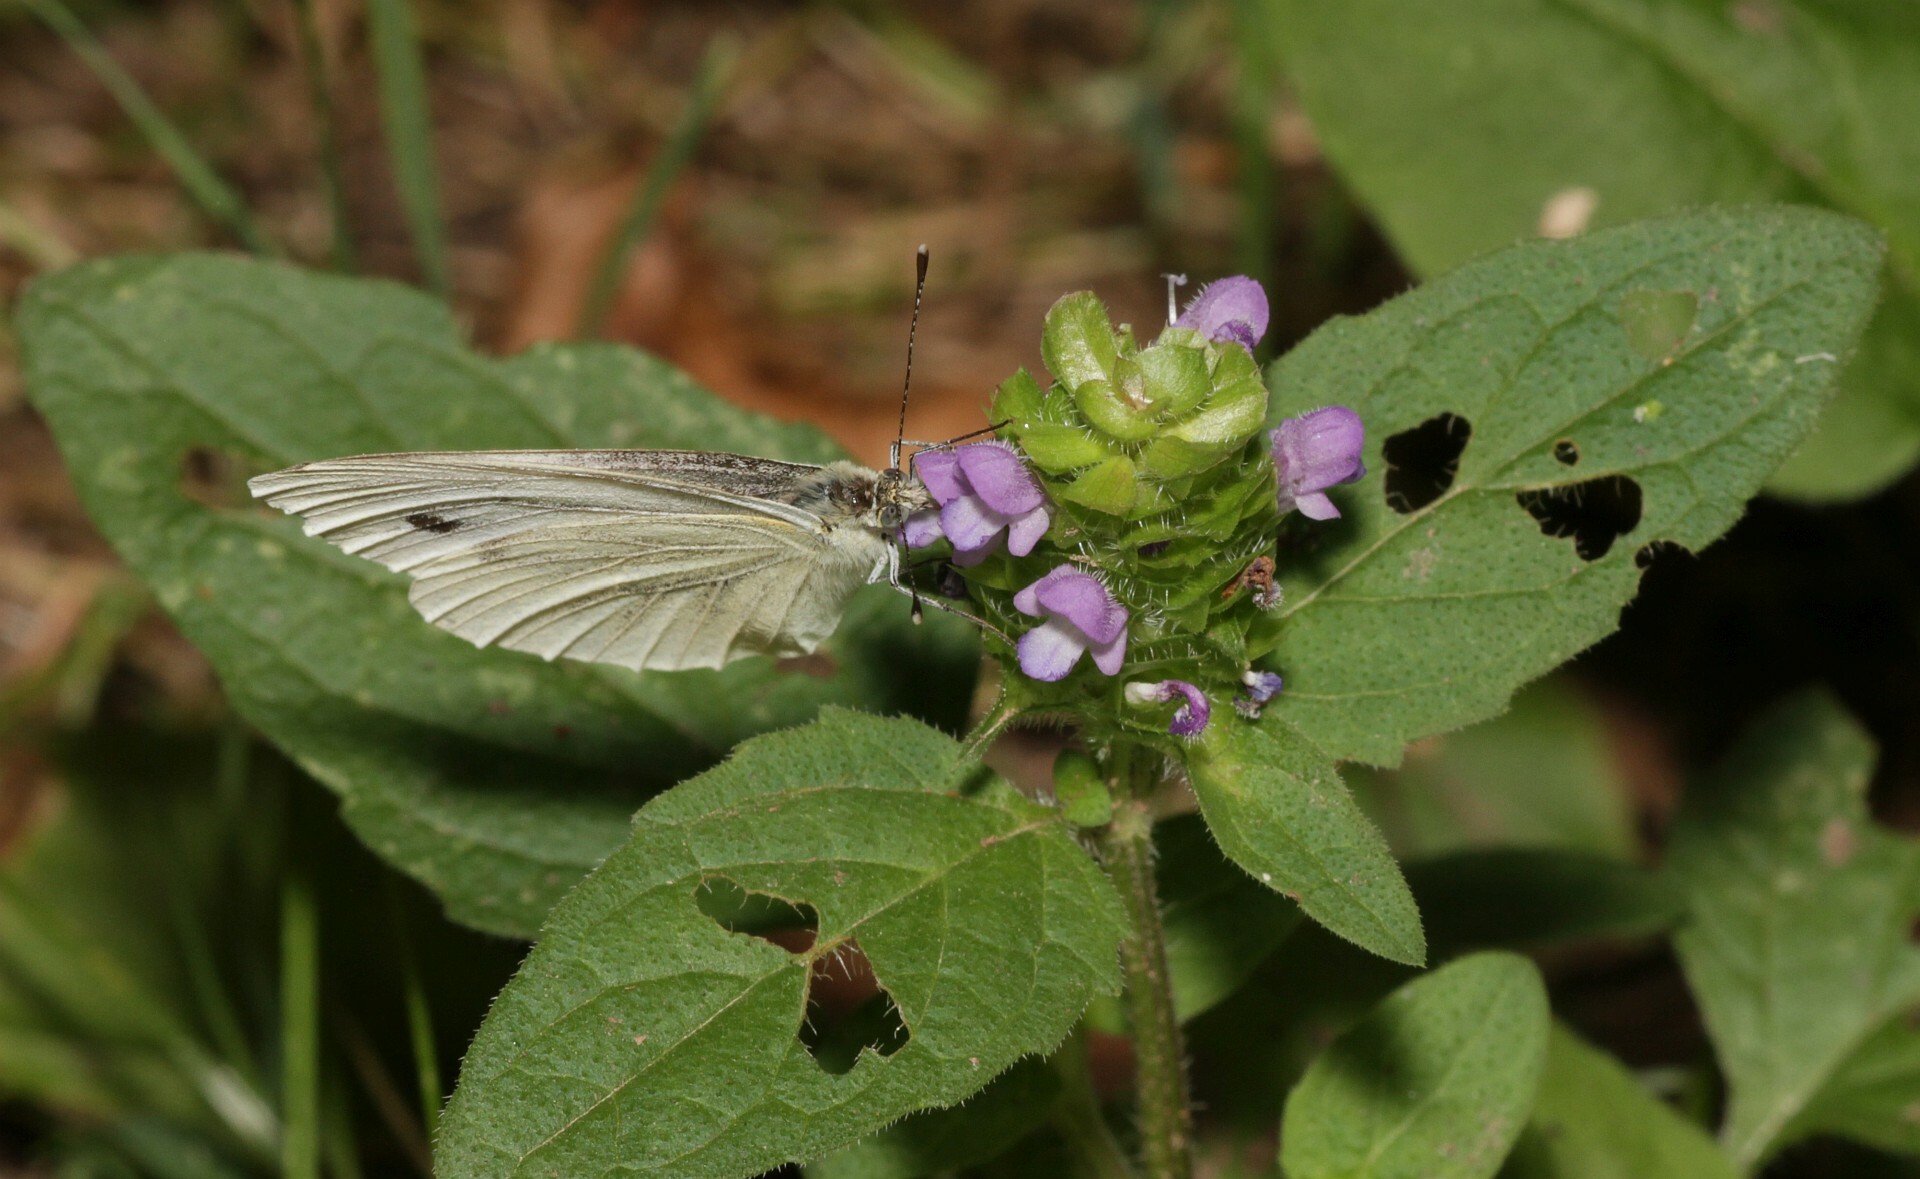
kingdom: Animalia
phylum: Arthropoda
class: Insecta
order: Lepidoptera
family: Pieridae
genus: Pieris
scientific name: Pieris napi
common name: Green-veined white
